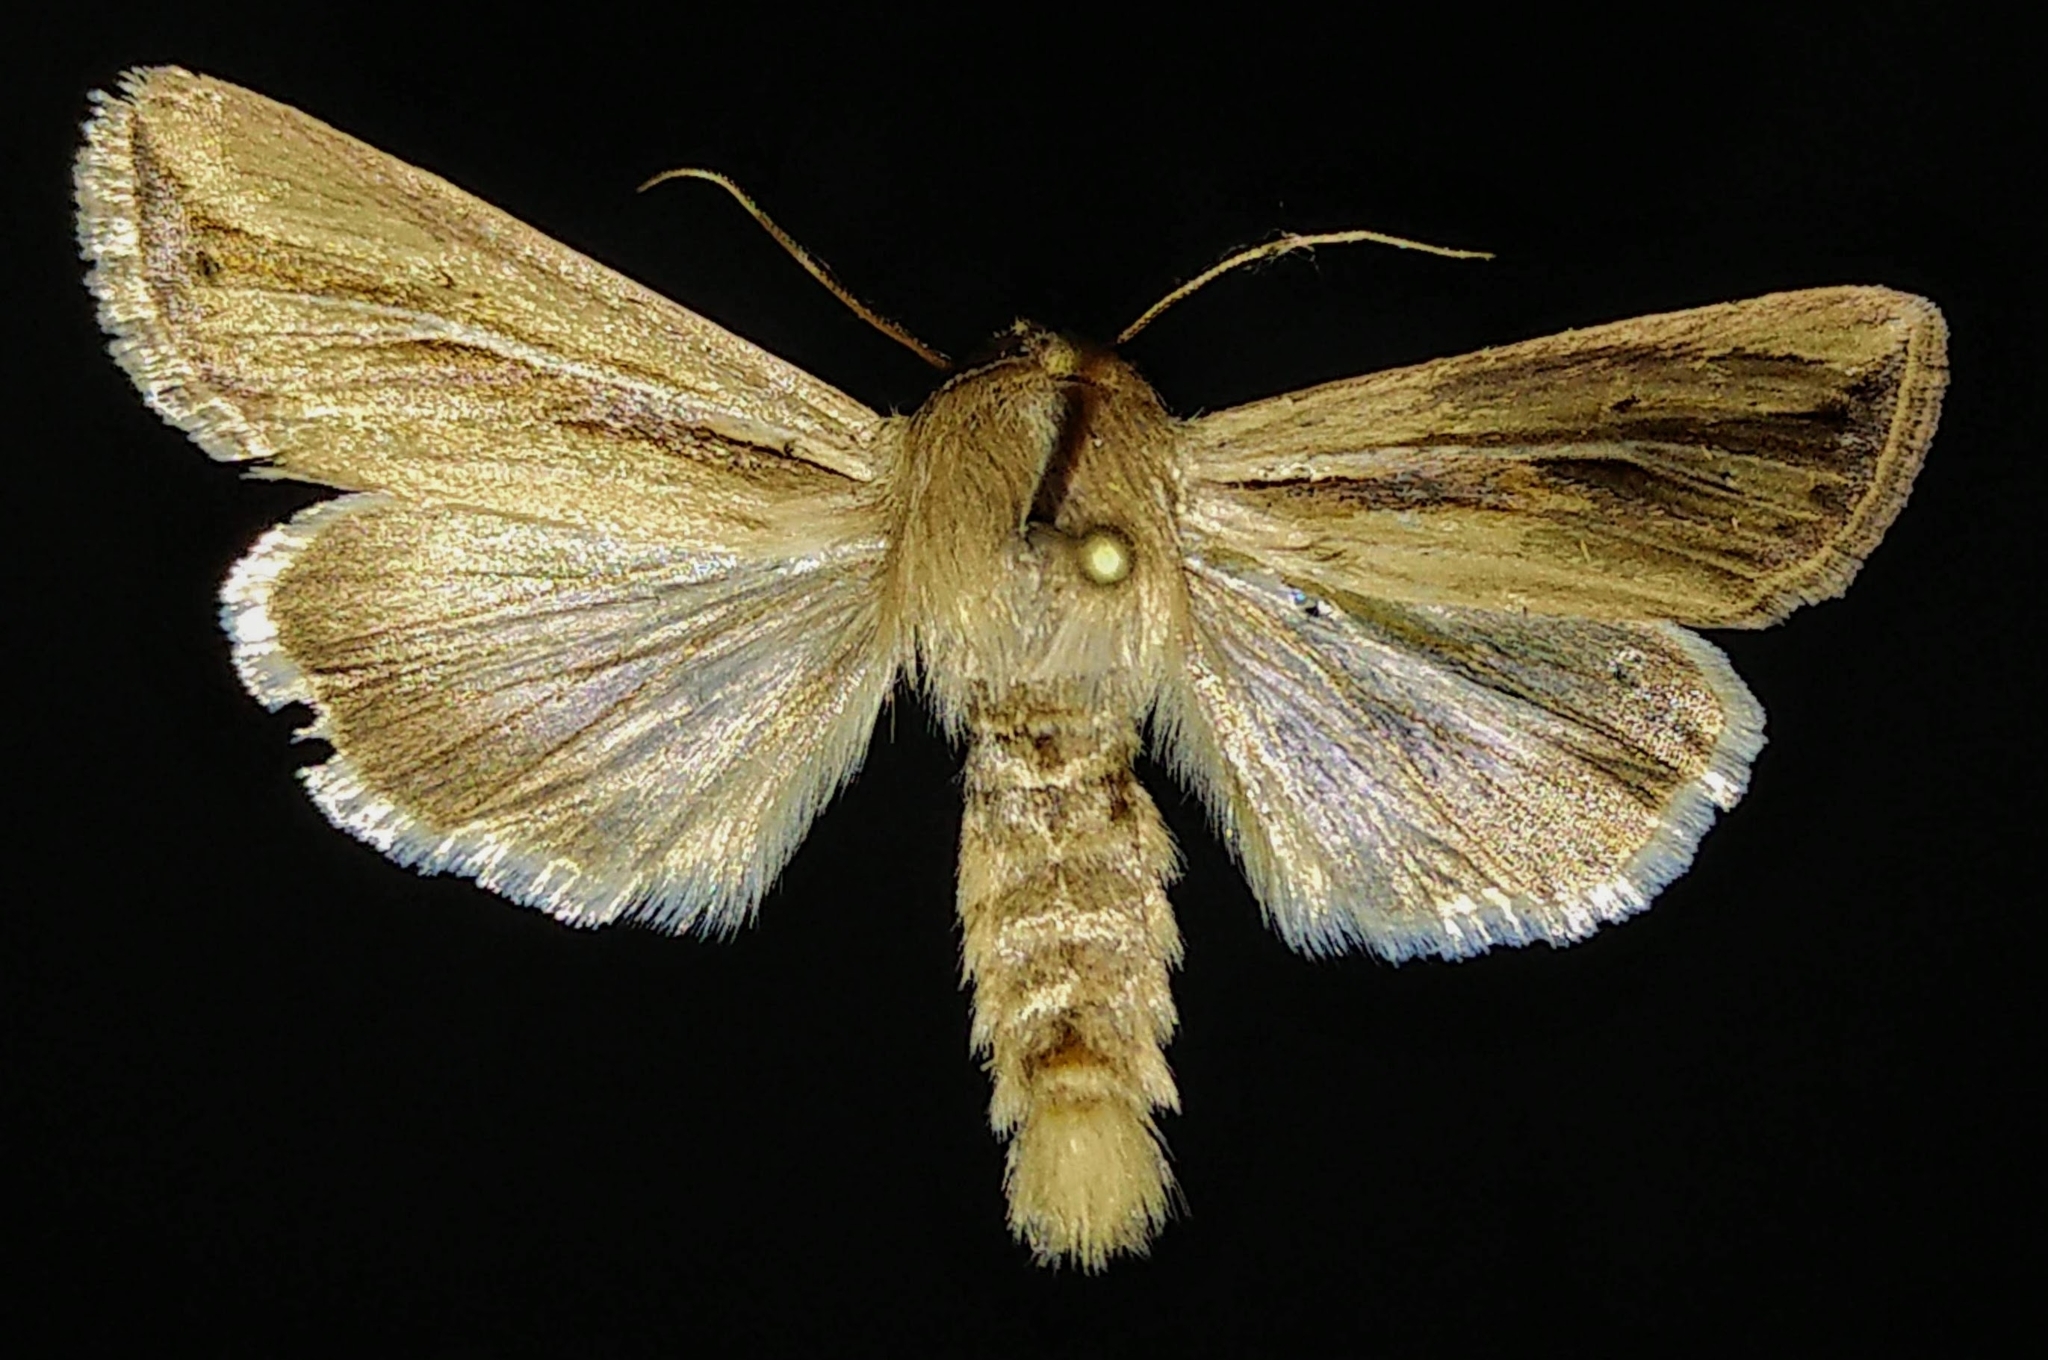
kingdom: Animalia
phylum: Arthropoda
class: Insecta
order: Lepidoptera
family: Noctuidae
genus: Dargida
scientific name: Dargida diffusa
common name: Wheat head armyworm
